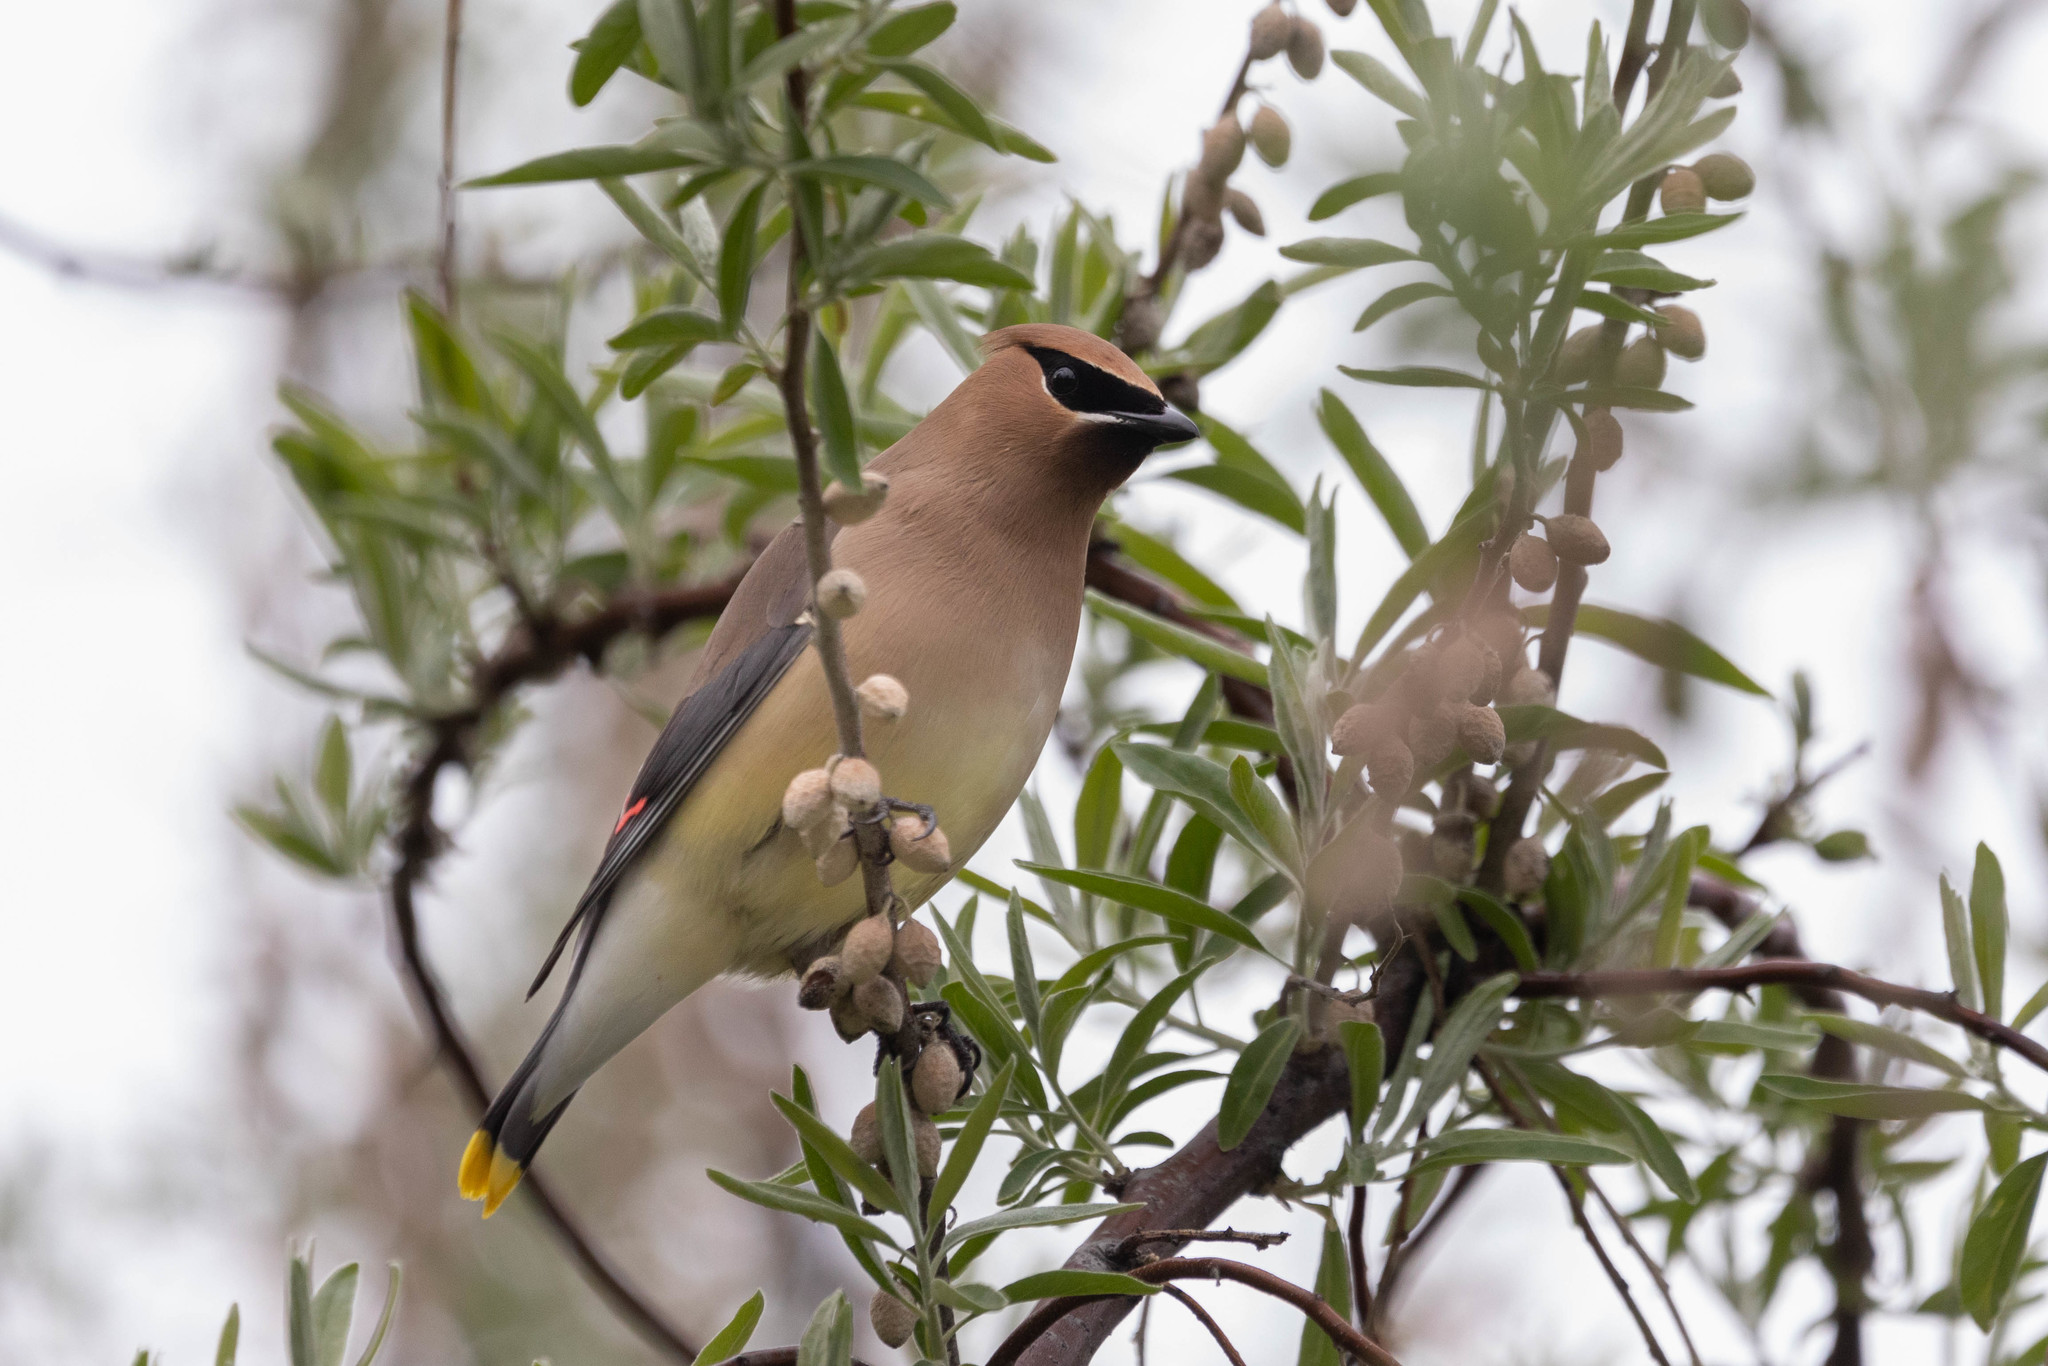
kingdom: Animalia
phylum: Chordata
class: Aves
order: Passeriformes
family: Bombycillidae
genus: Bombycilla
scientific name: Bombycilla cedrorum
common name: Cedar waxwing
